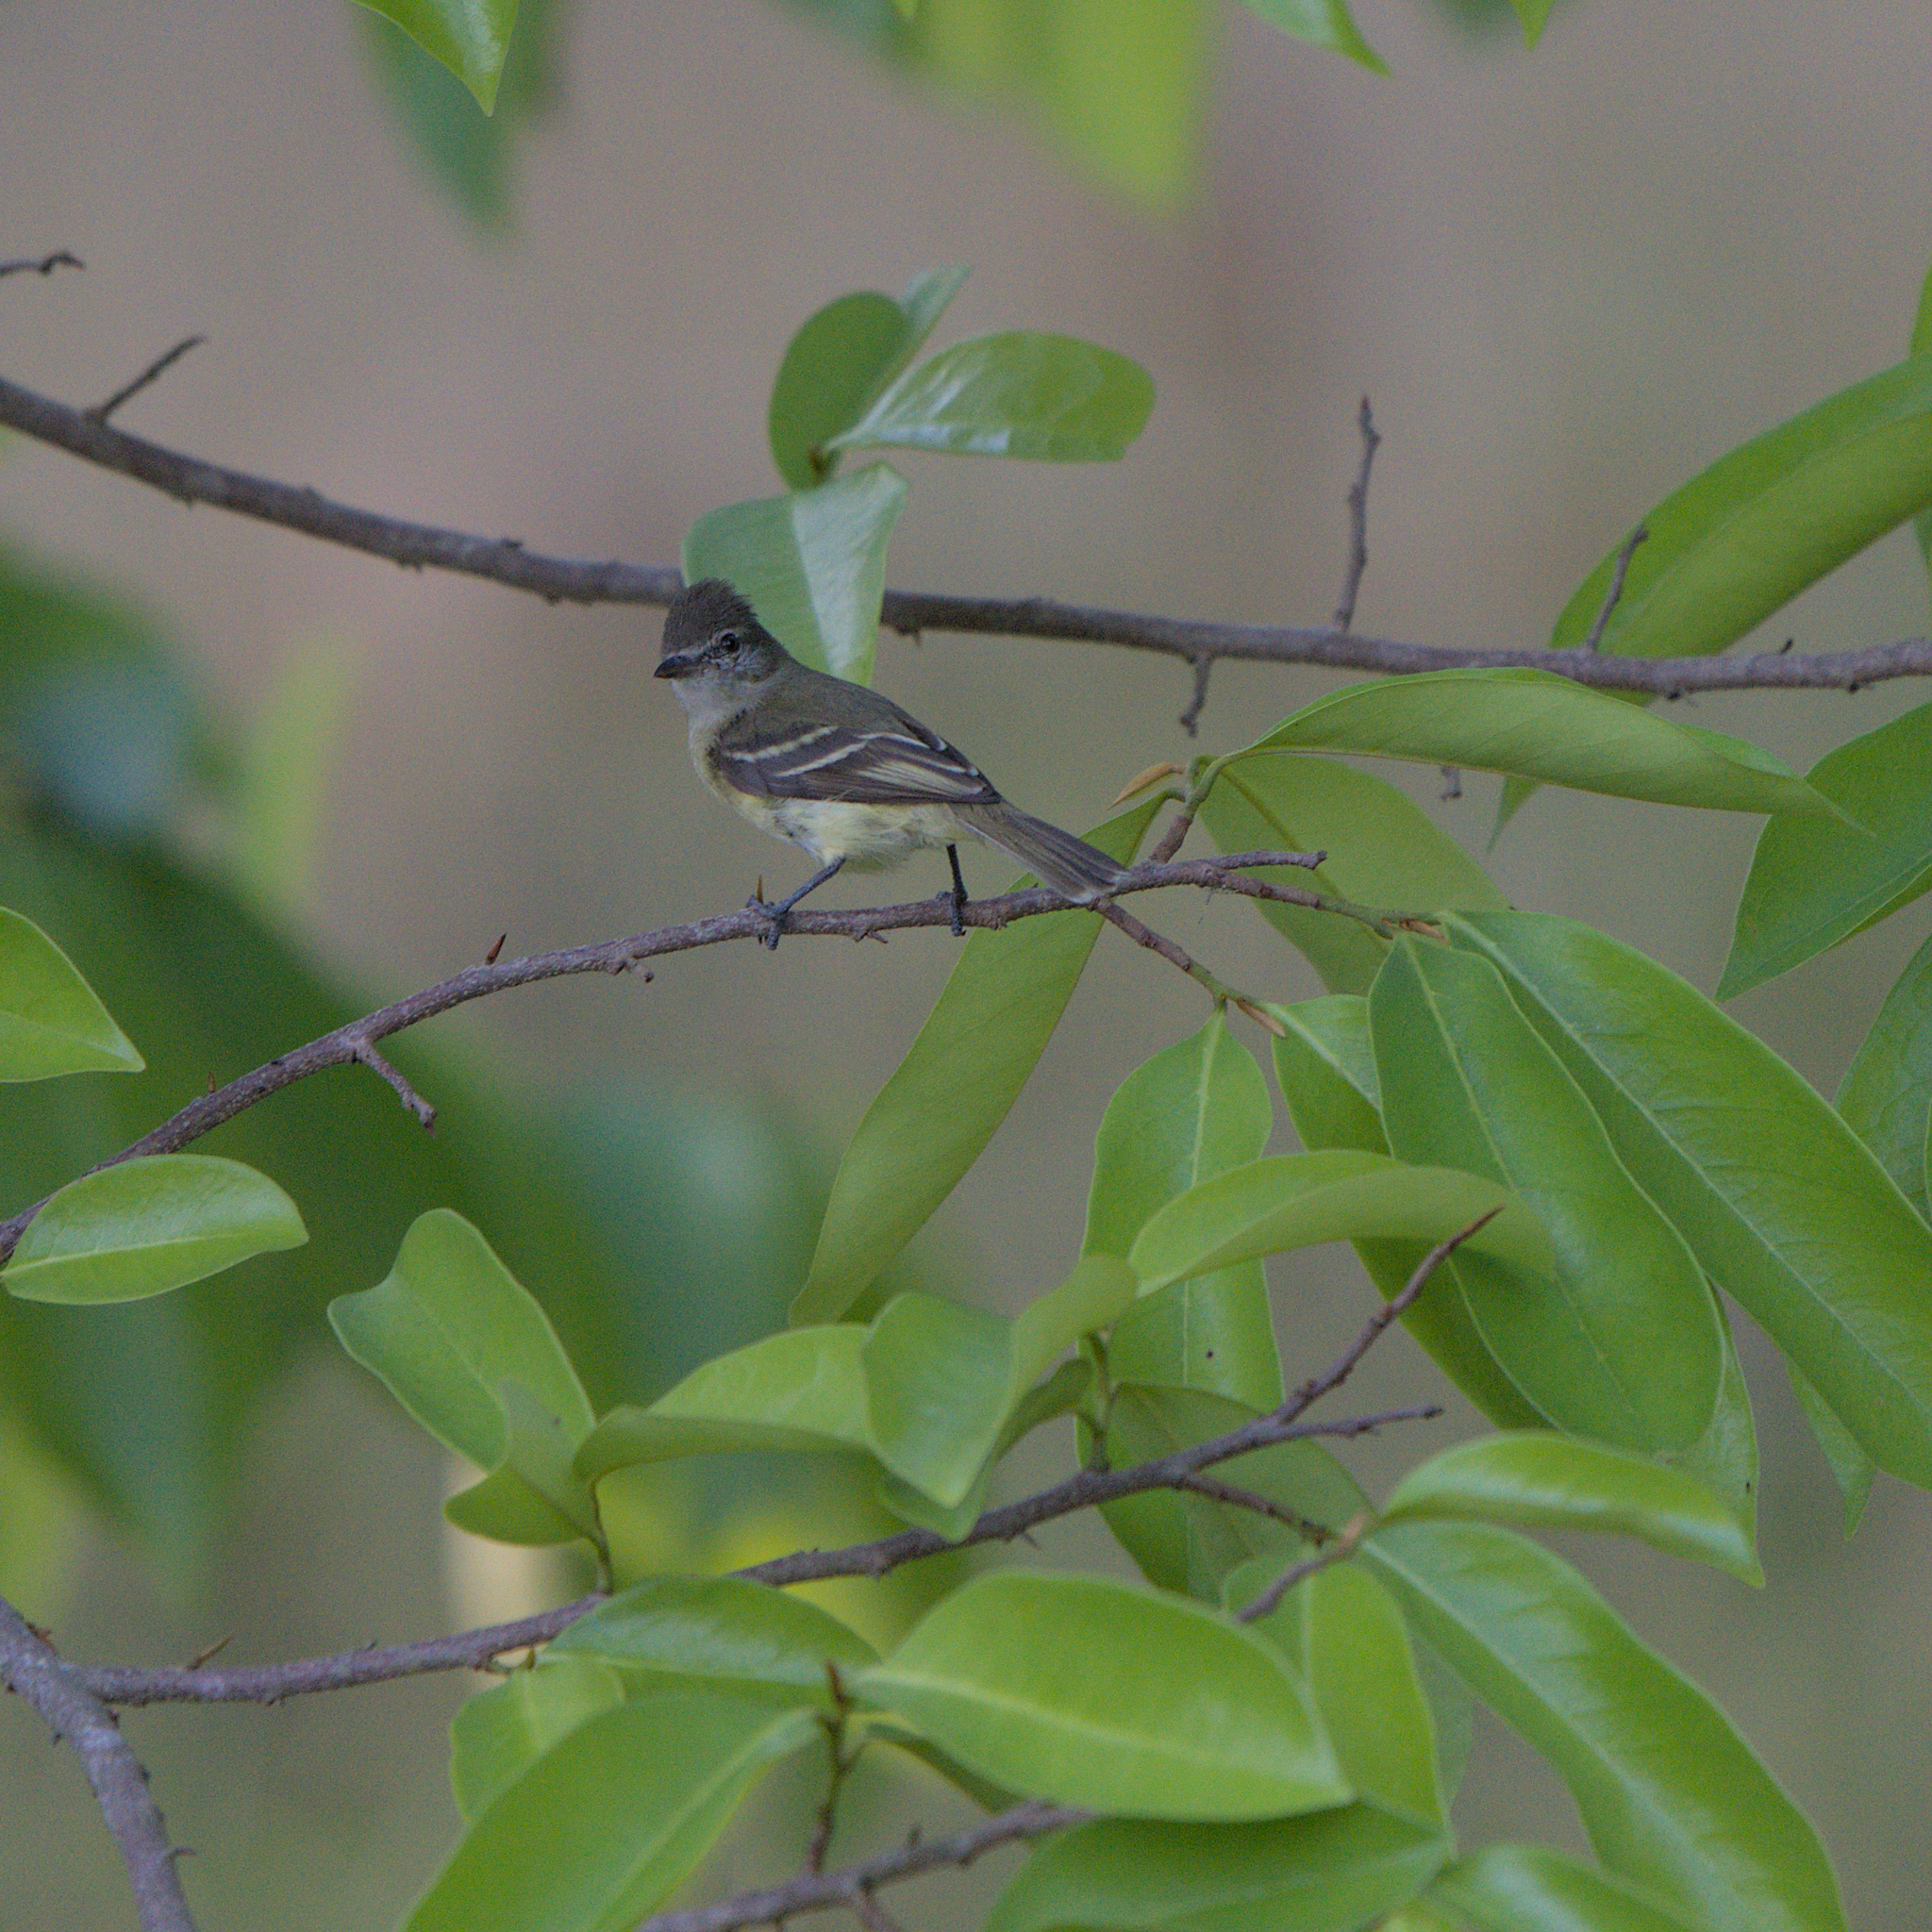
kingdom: Animalia
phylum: Chordata
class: Aves
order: Passeriformes
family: Tyrannidae
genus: Camptostoma
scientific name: Camptostoma obsoletum
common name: Southern beardless-tyrannulet
